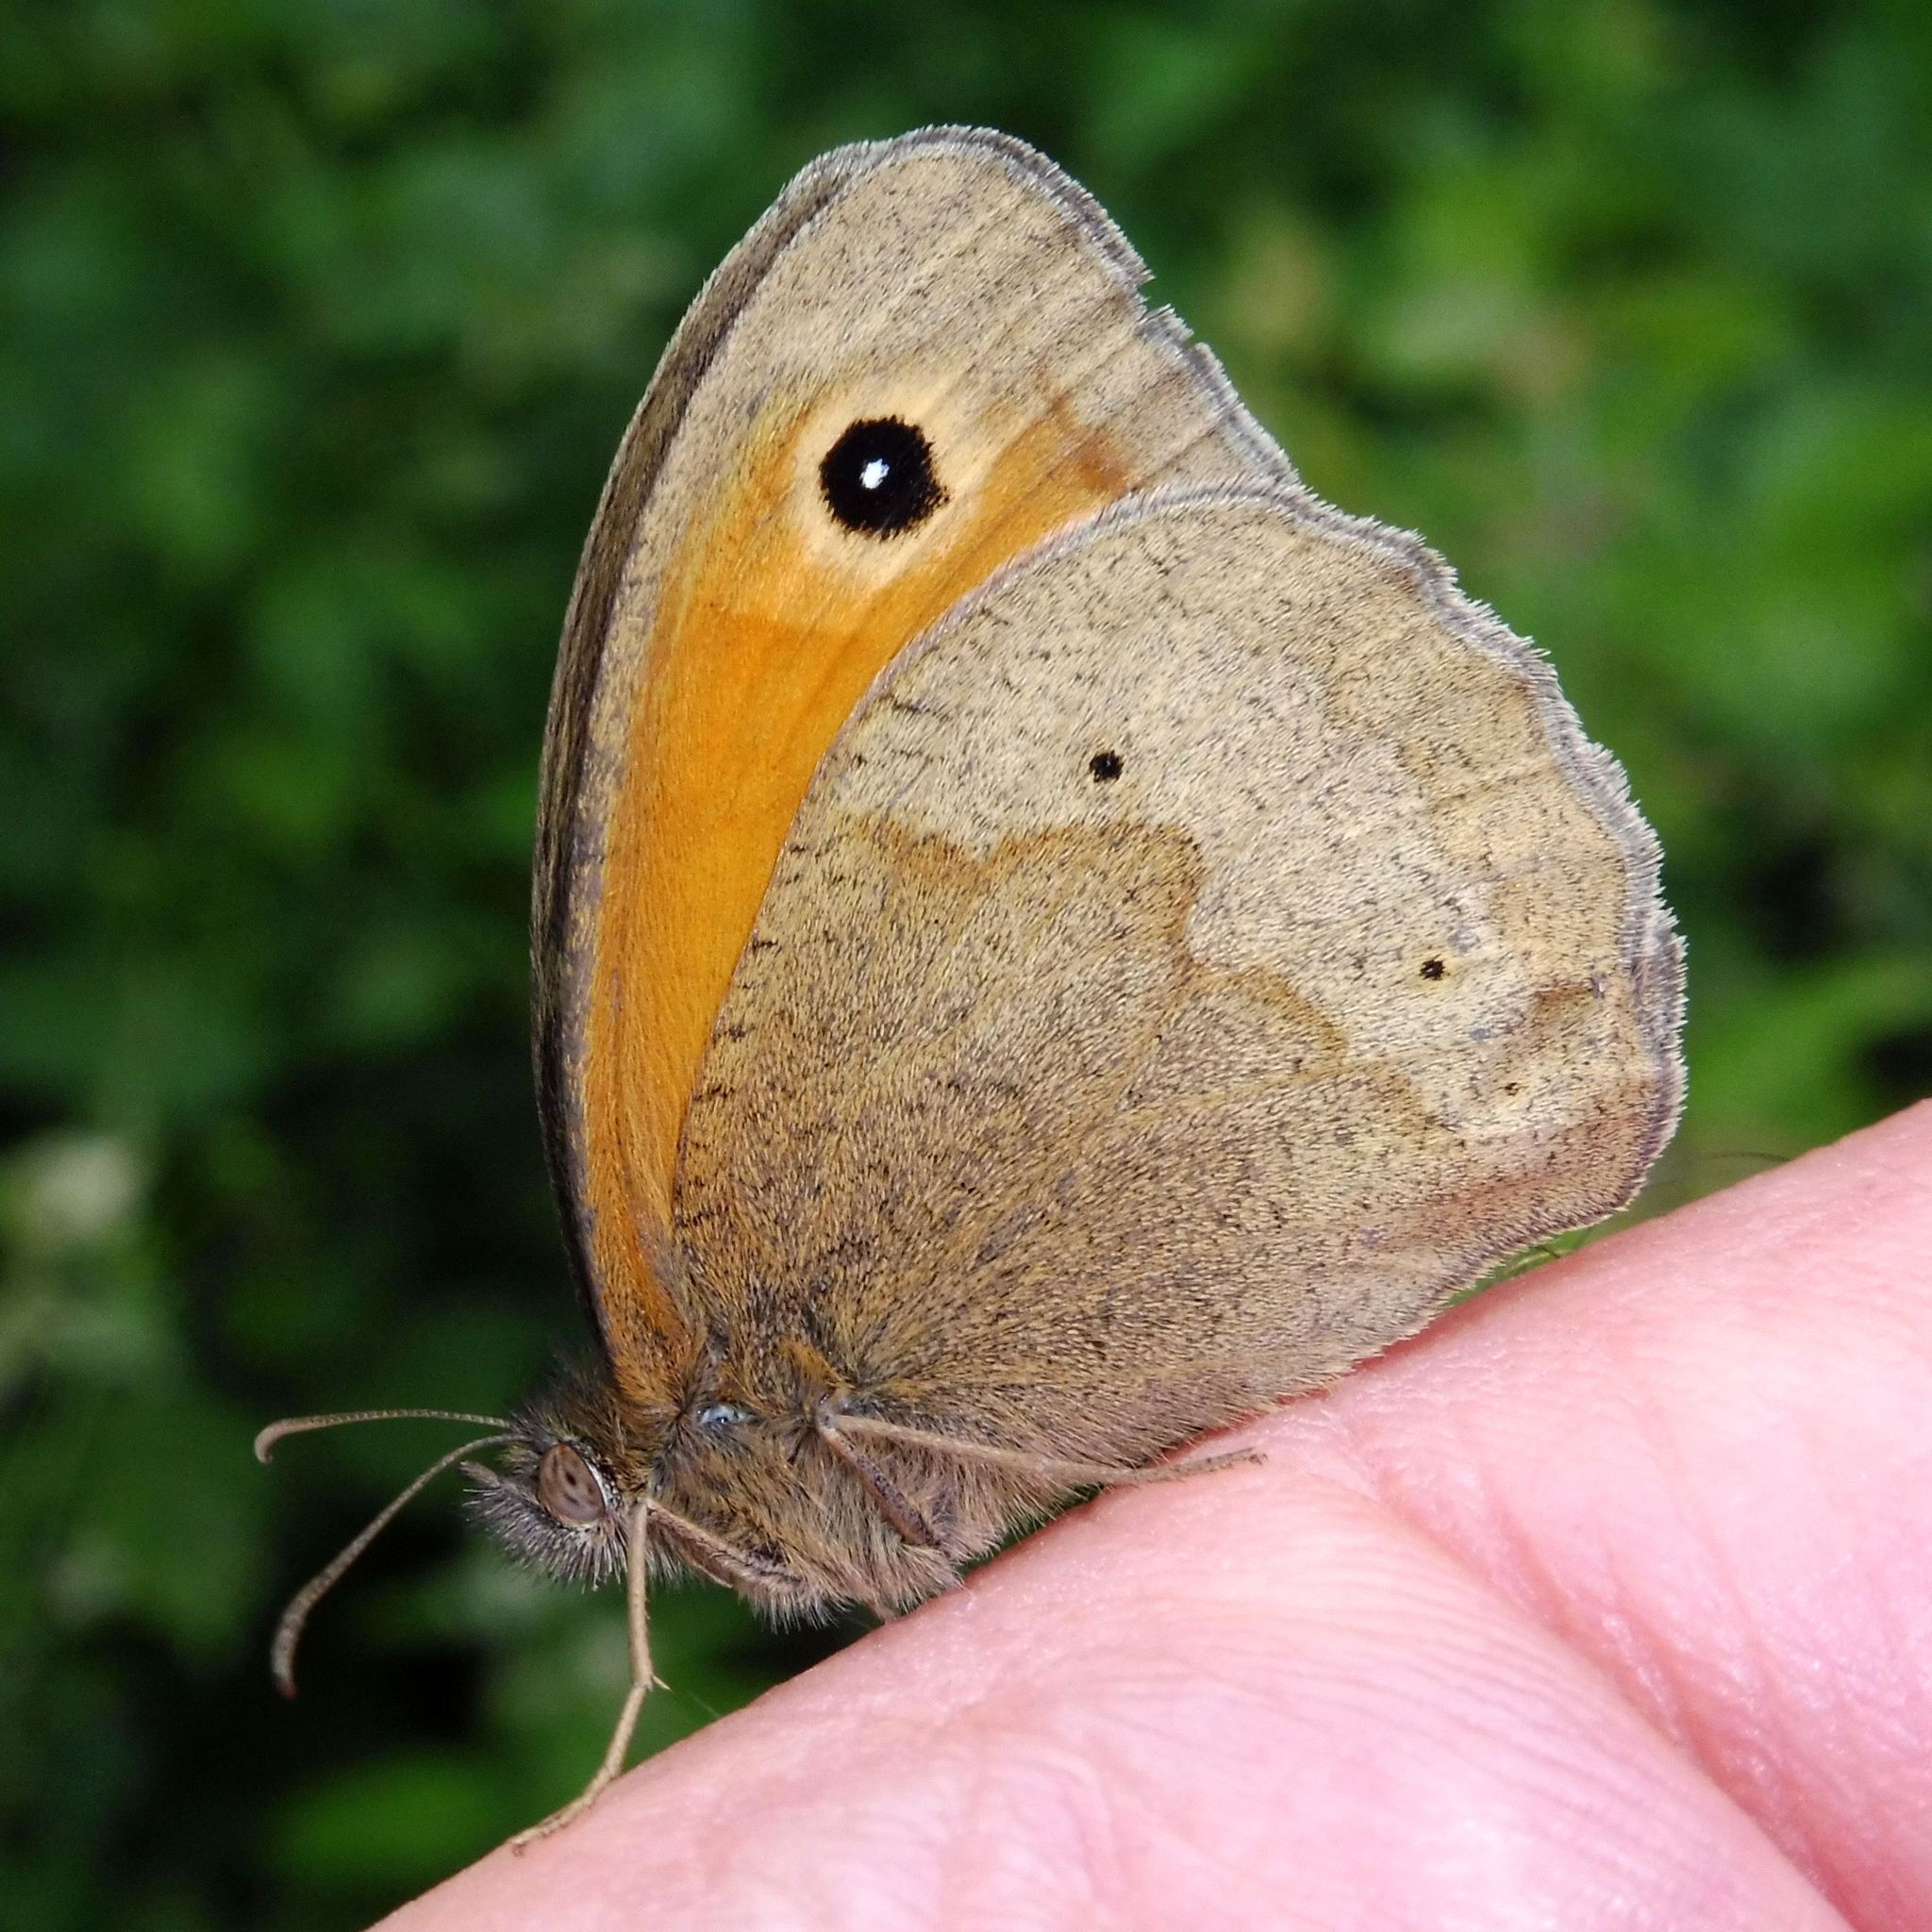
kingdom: Animalia
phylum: Arthropoda
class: Insecta
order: Lepidoptera
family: Nymphalidae
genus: Maniola
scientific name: Maniola jurtina
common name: Meadow brown
